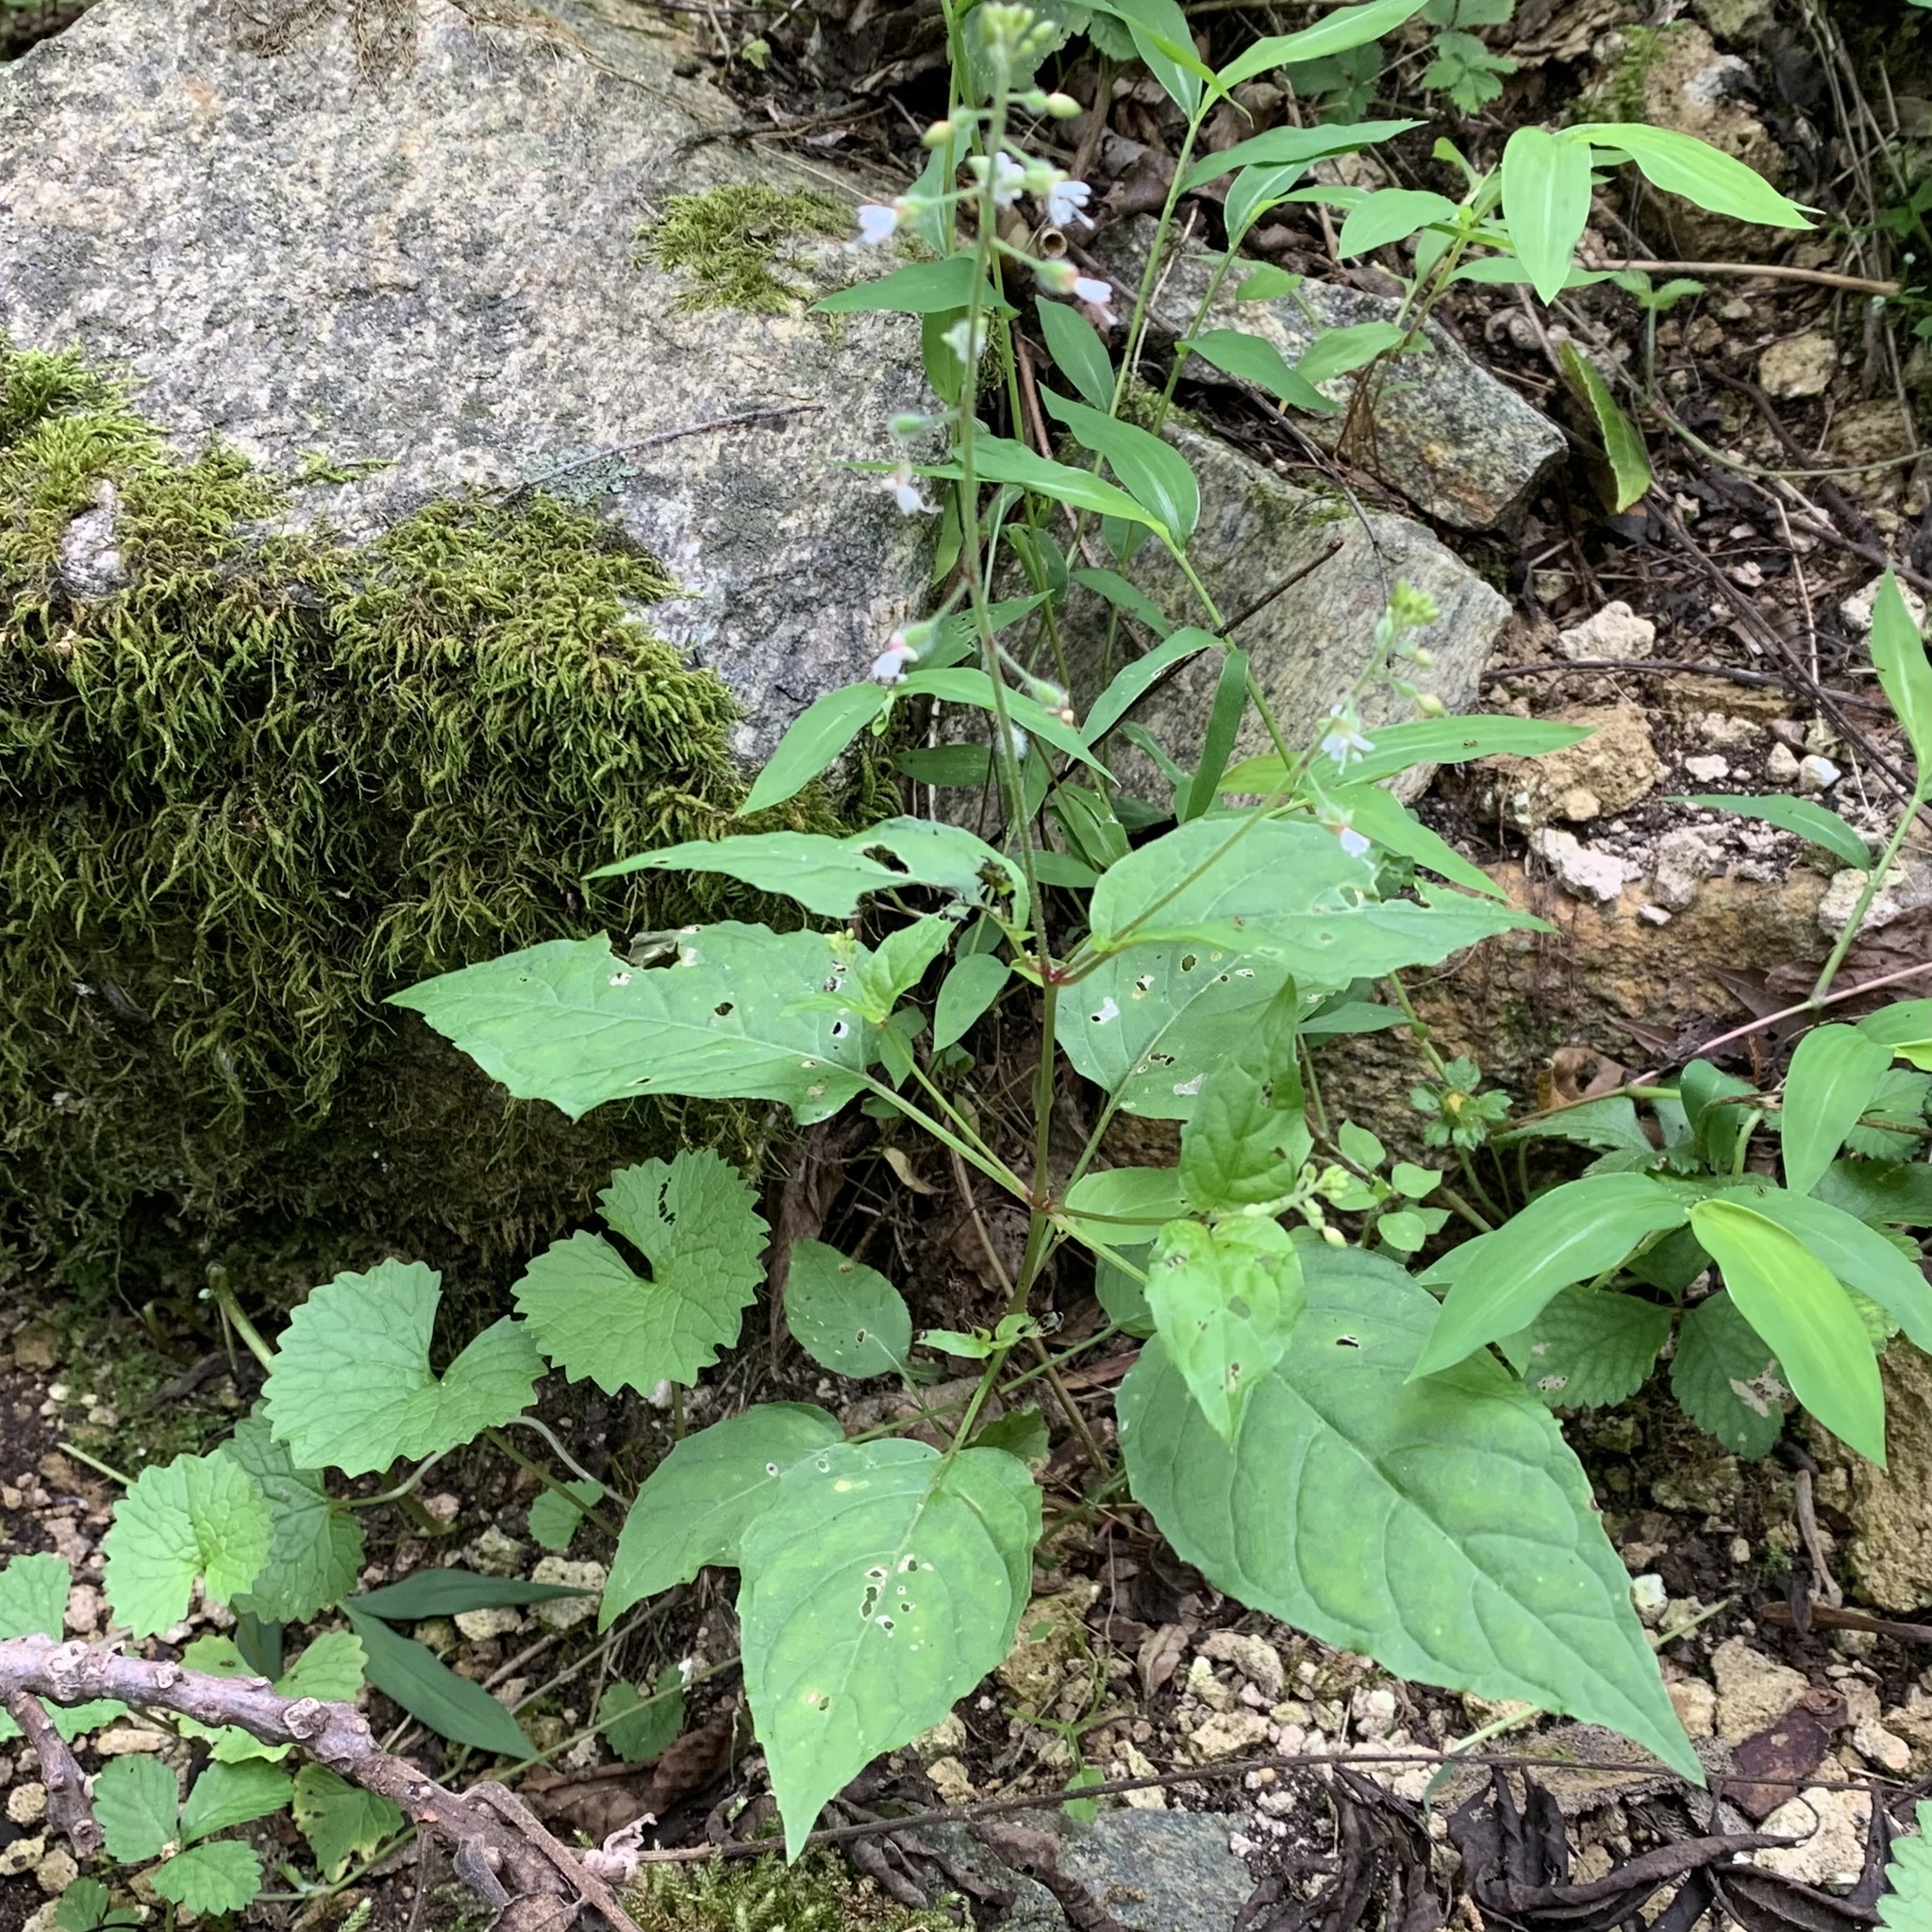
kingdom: Plantae
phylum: Tracheophyta
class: Magnoliopsida
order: Myrtales
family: Onagraceae
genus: Circaea
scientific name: Circaea canadensis
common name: Broad-leaved enchanter's nightshade
